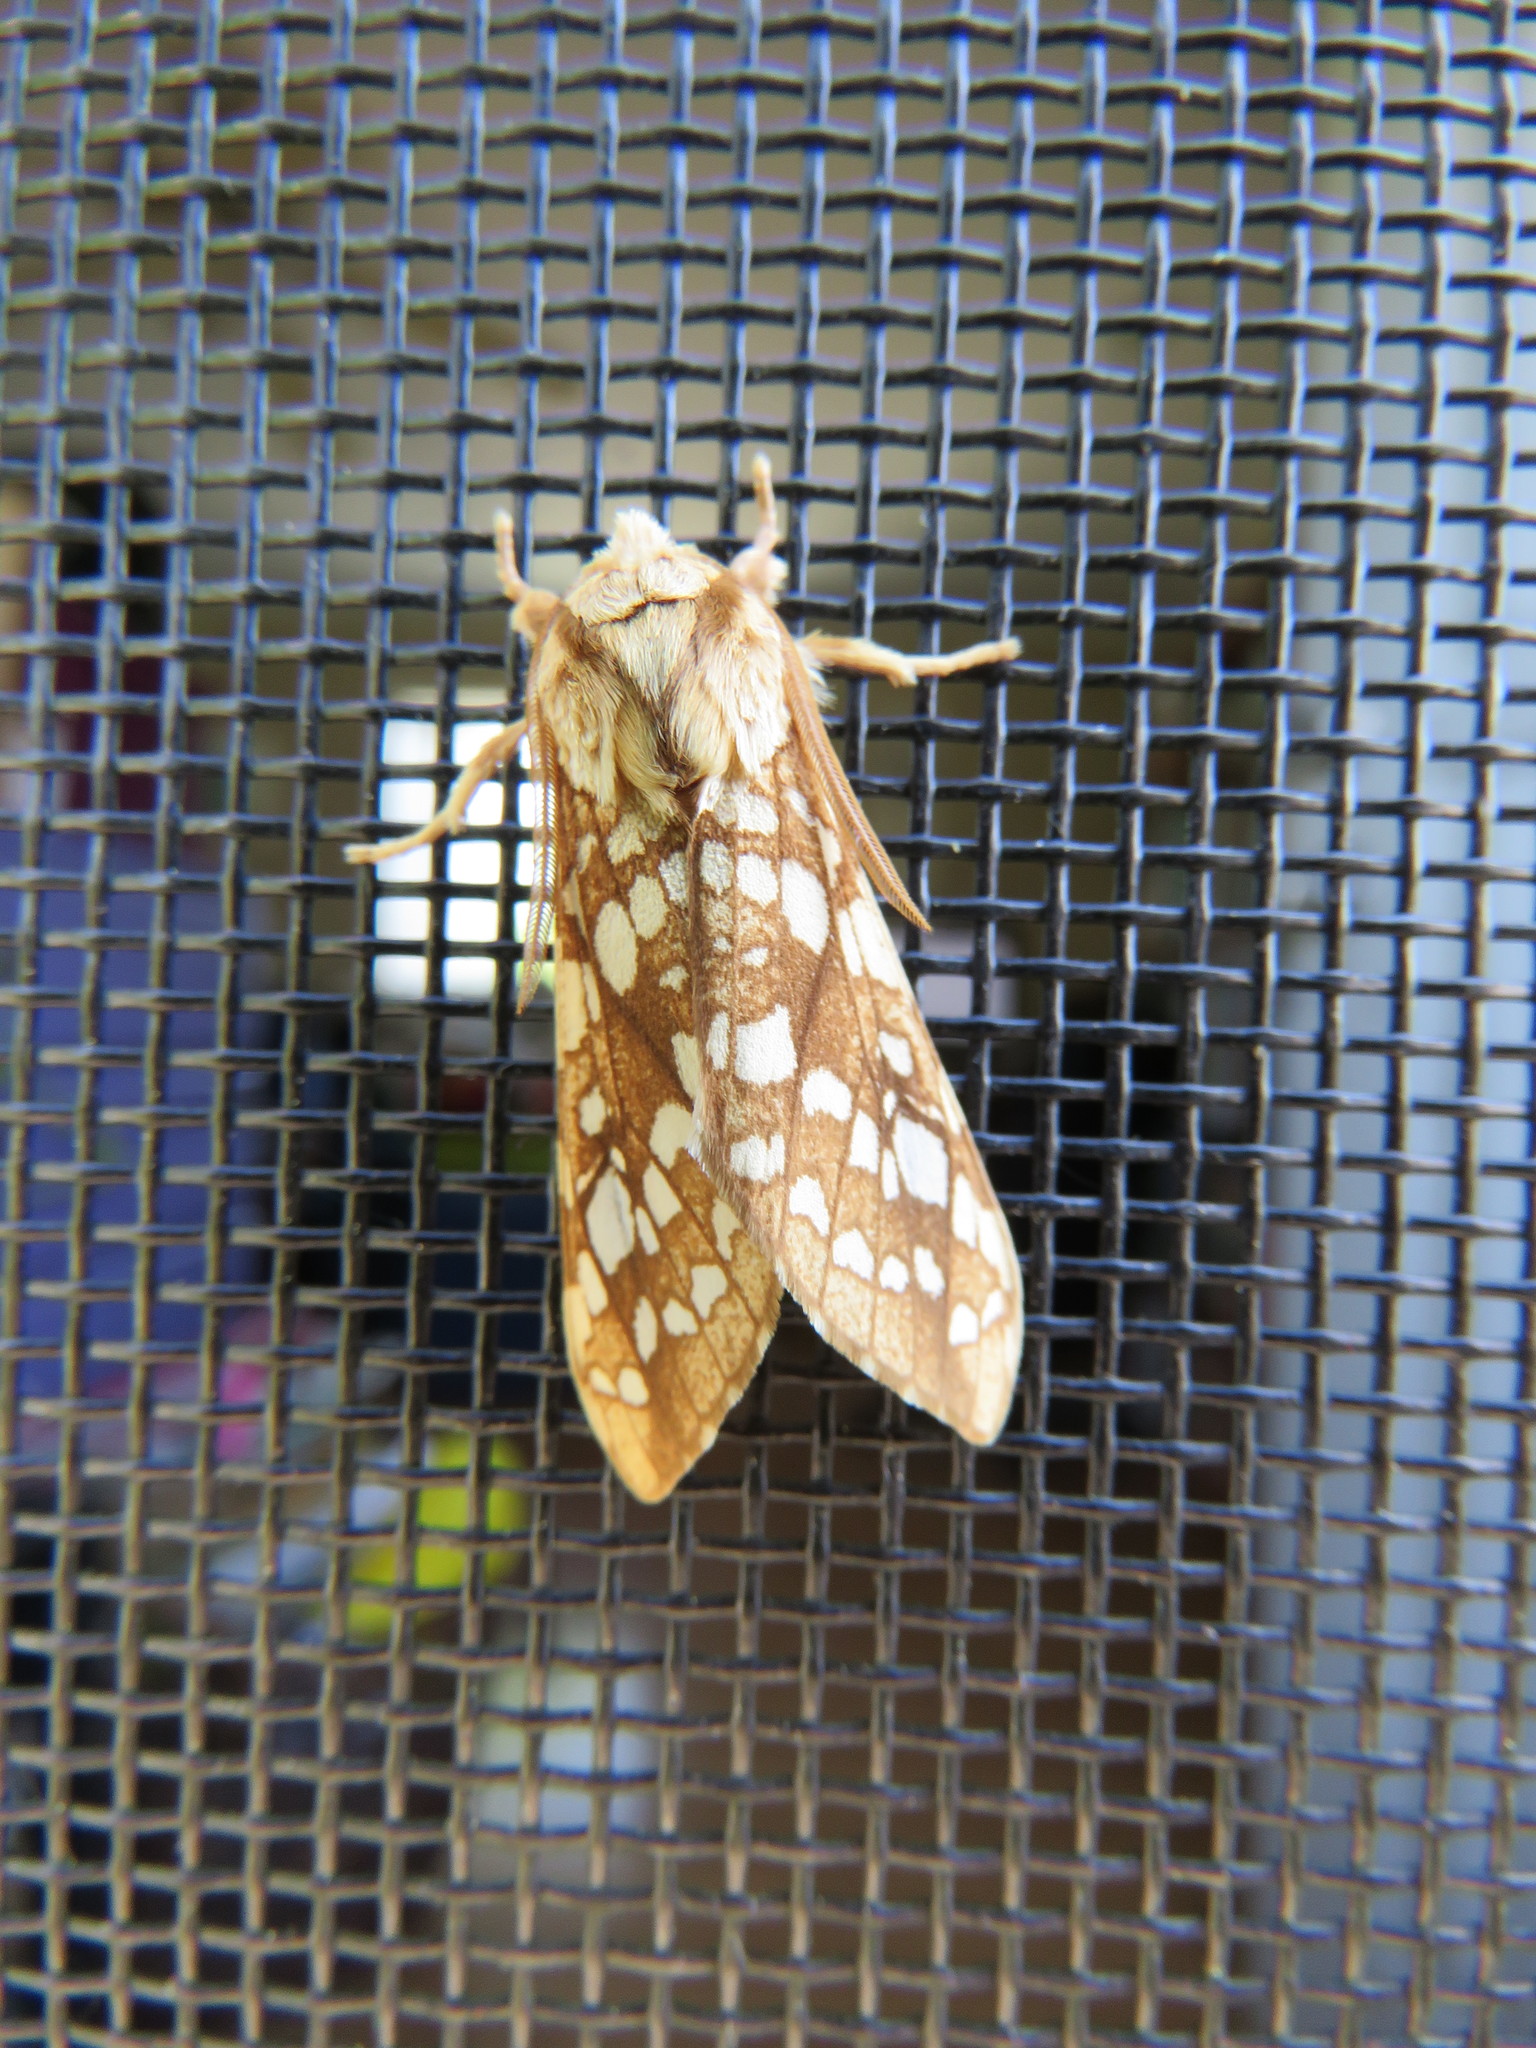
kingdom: Animalia
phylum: Arthropoda
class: Insecta
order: Lepidoptera
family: Erebidae
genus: Lophocampa
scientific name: Lophocampa caryae
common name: Hickory tussock moth
